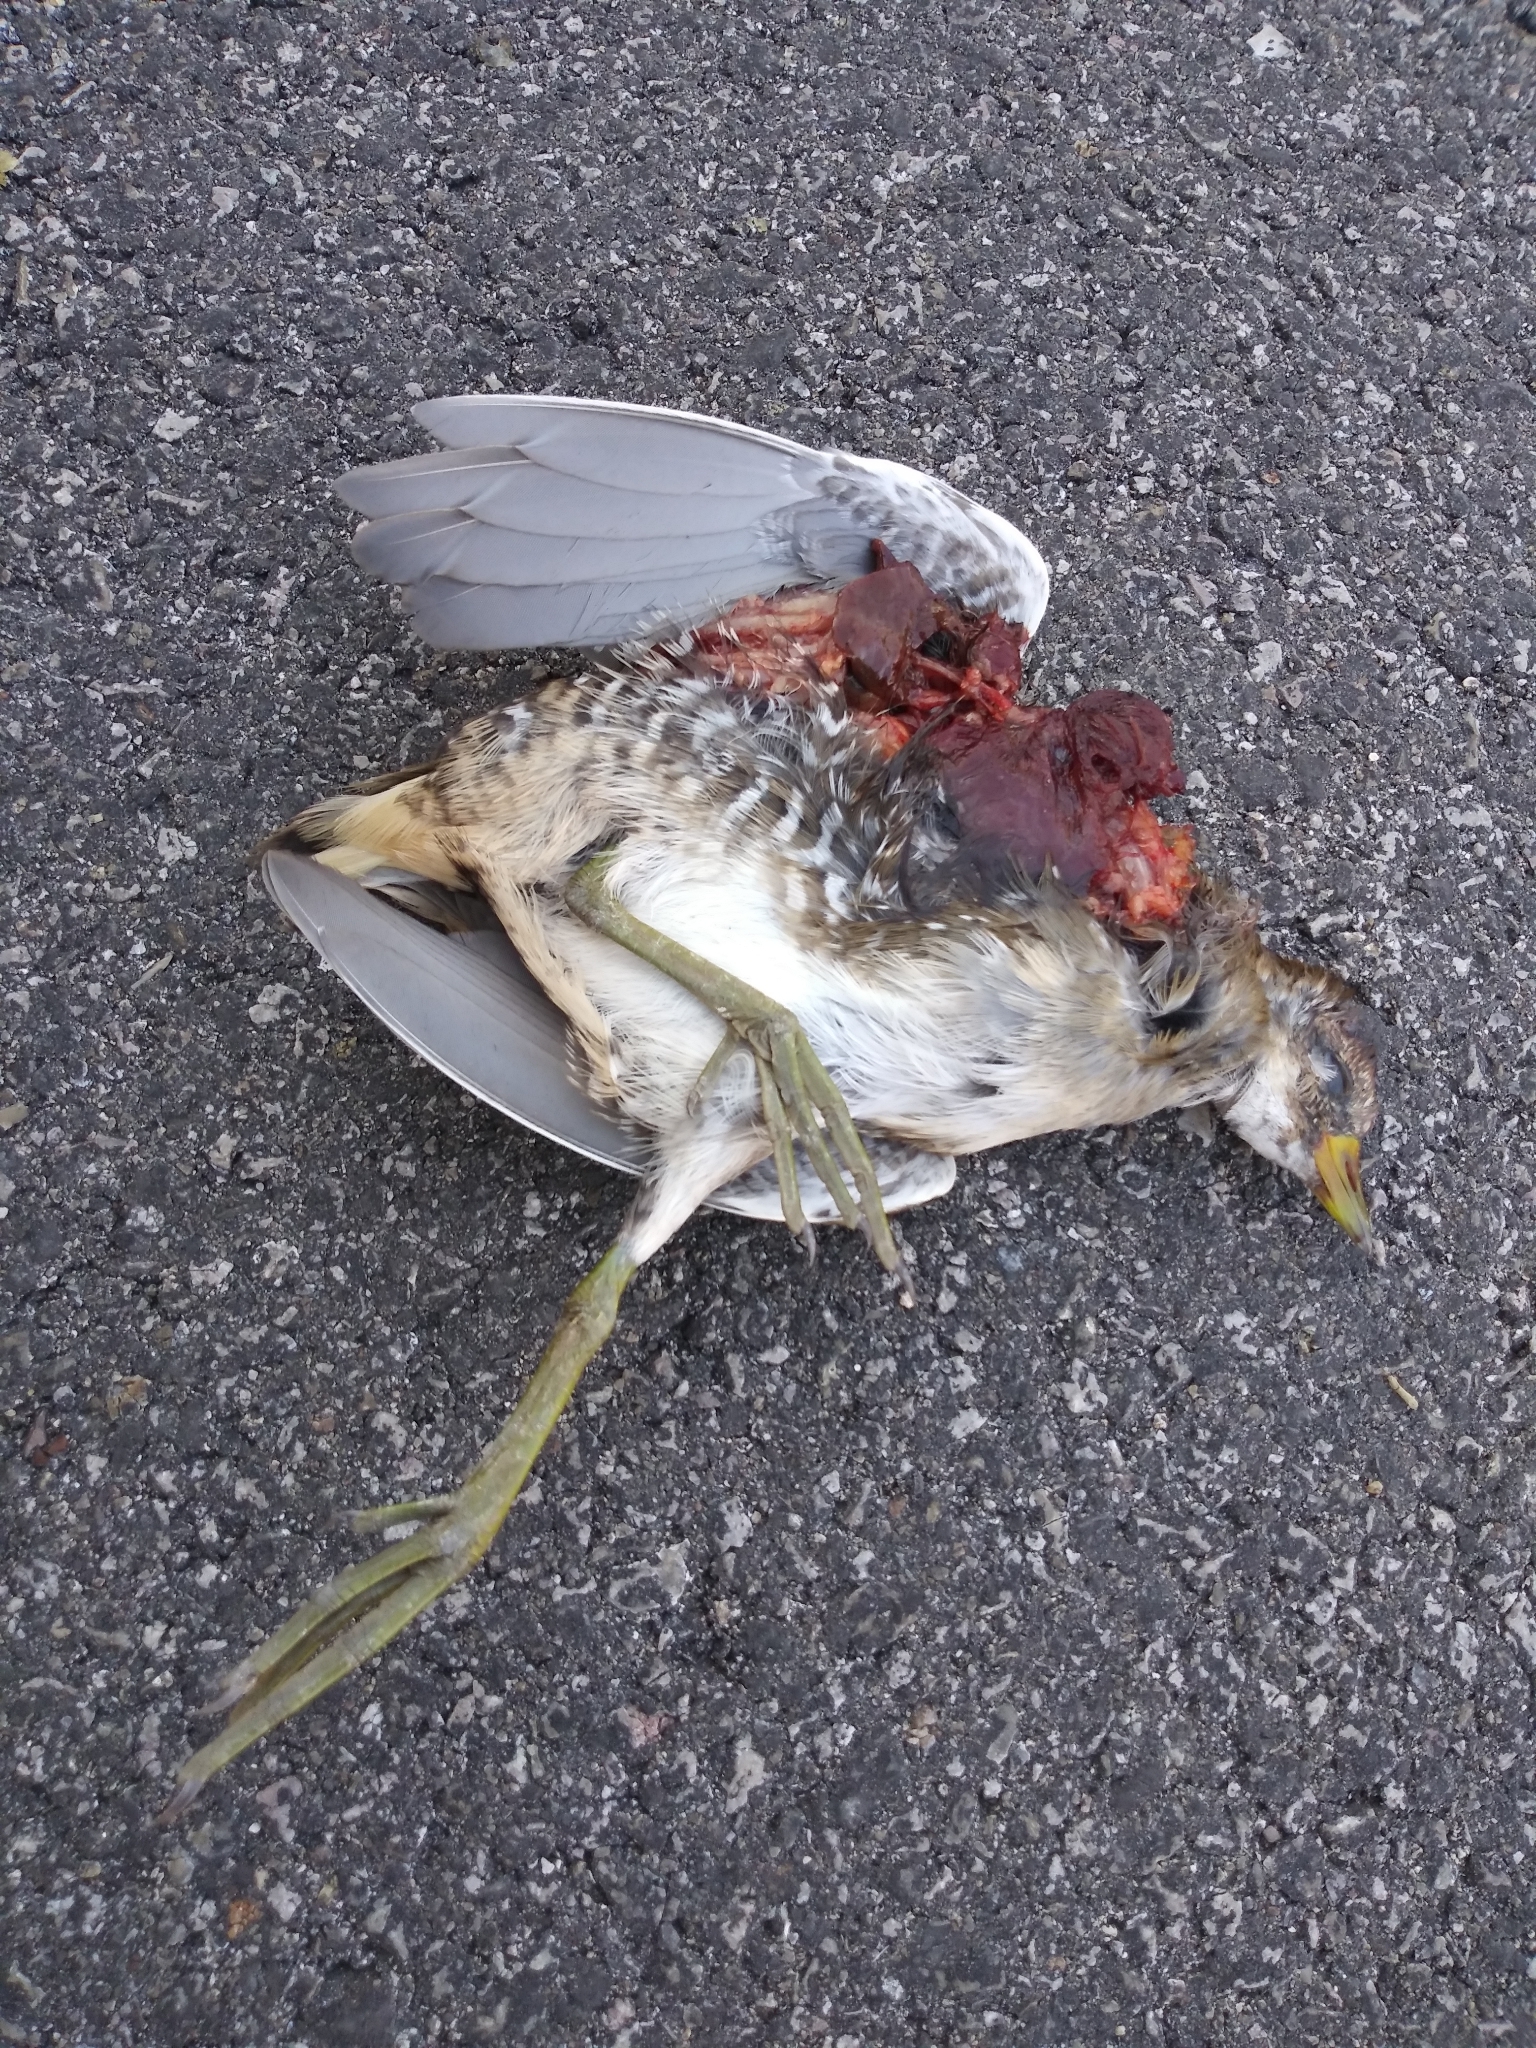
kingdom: Animalia
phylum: Chordata
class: Aves
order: Gruiformes
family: Rallidae
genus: Porzana
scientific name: Porzana carolina
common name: Sora
